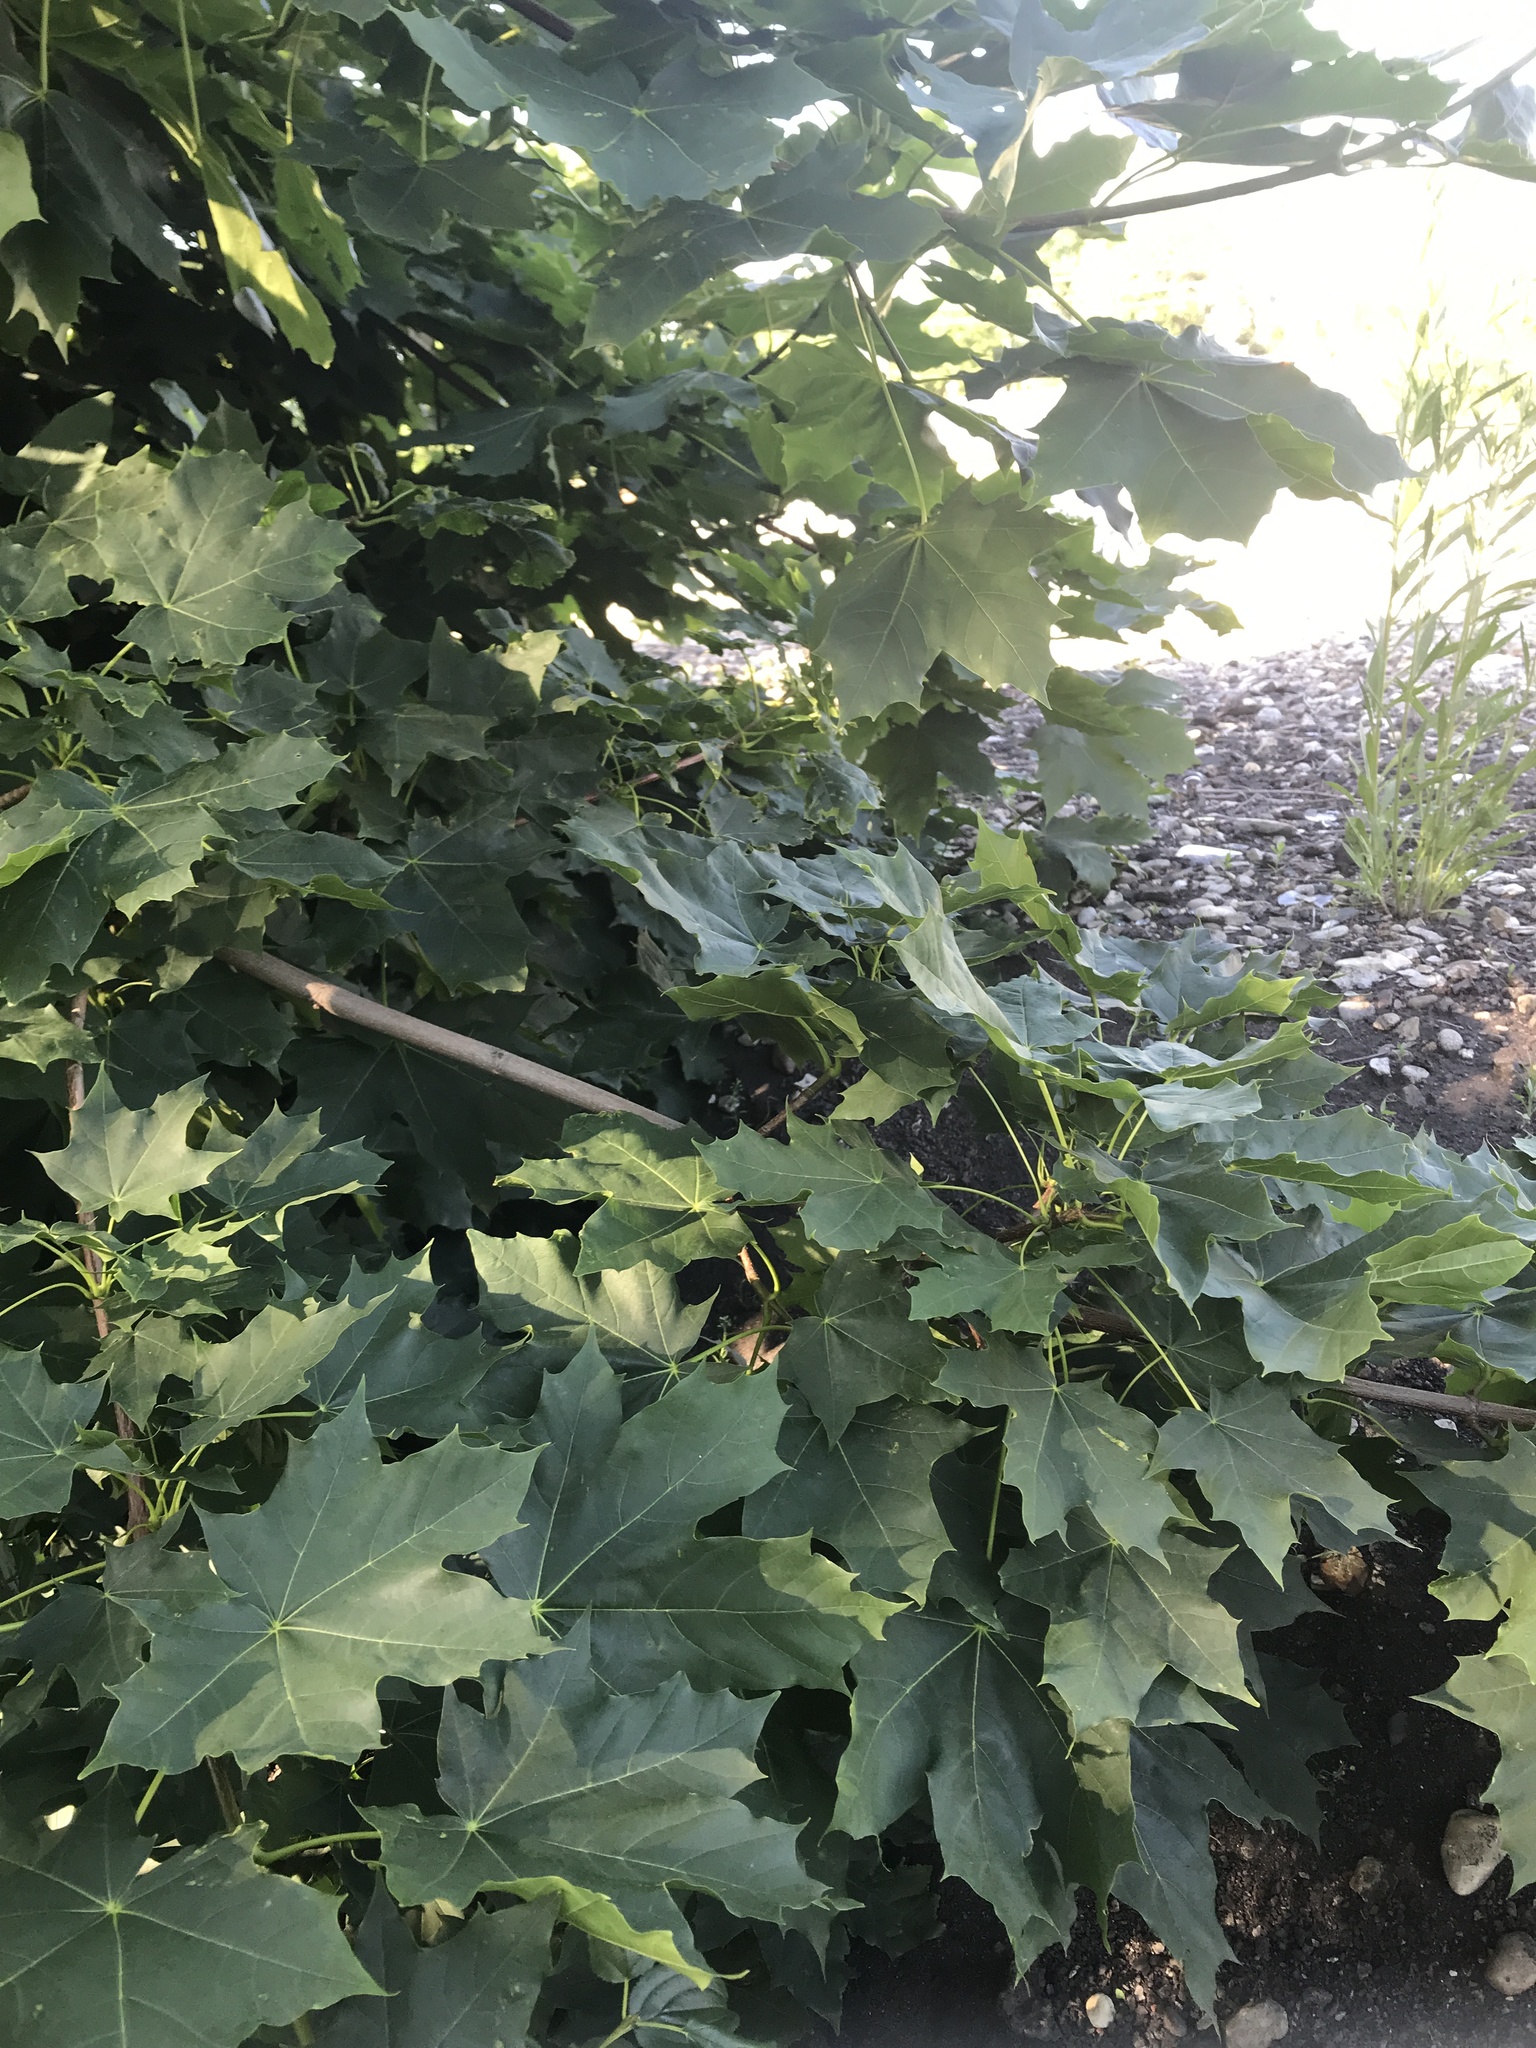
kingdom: Plantae
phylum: Tracheophyta
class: Magnoliopsida
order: Sapindales
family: Sapindaceae
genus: Acer
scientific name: Acer platanoides
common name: Norway maple
